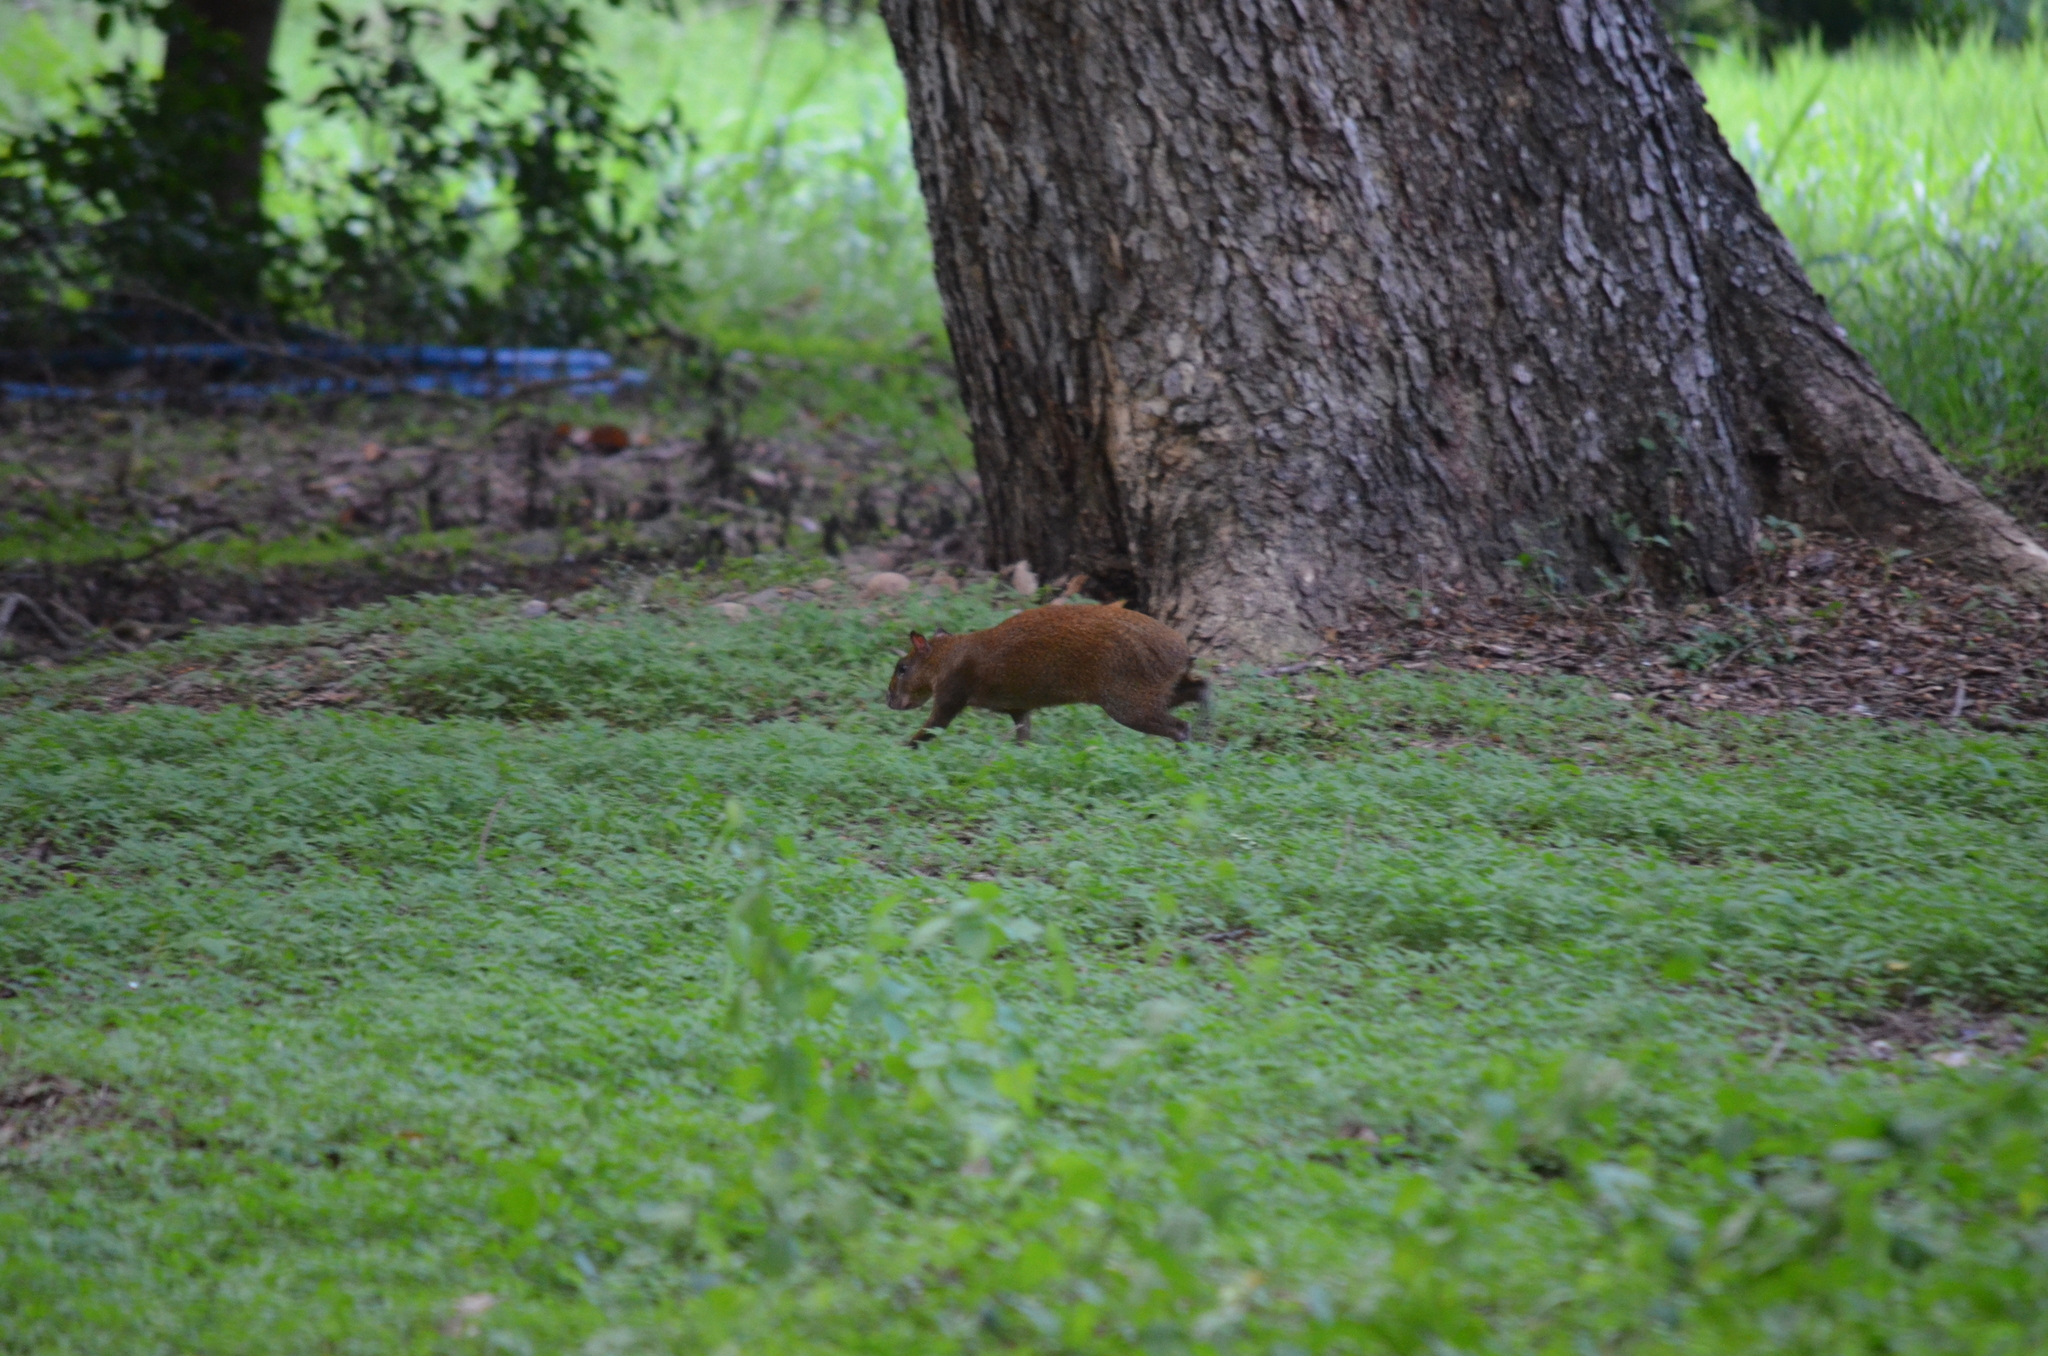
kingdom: Animalia
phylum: Chordata
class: Mammalia
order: Rodentia
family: Dasyproctidae
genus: Dasyprocta
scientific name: Dasyprocta punctata
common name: Central american agouti
